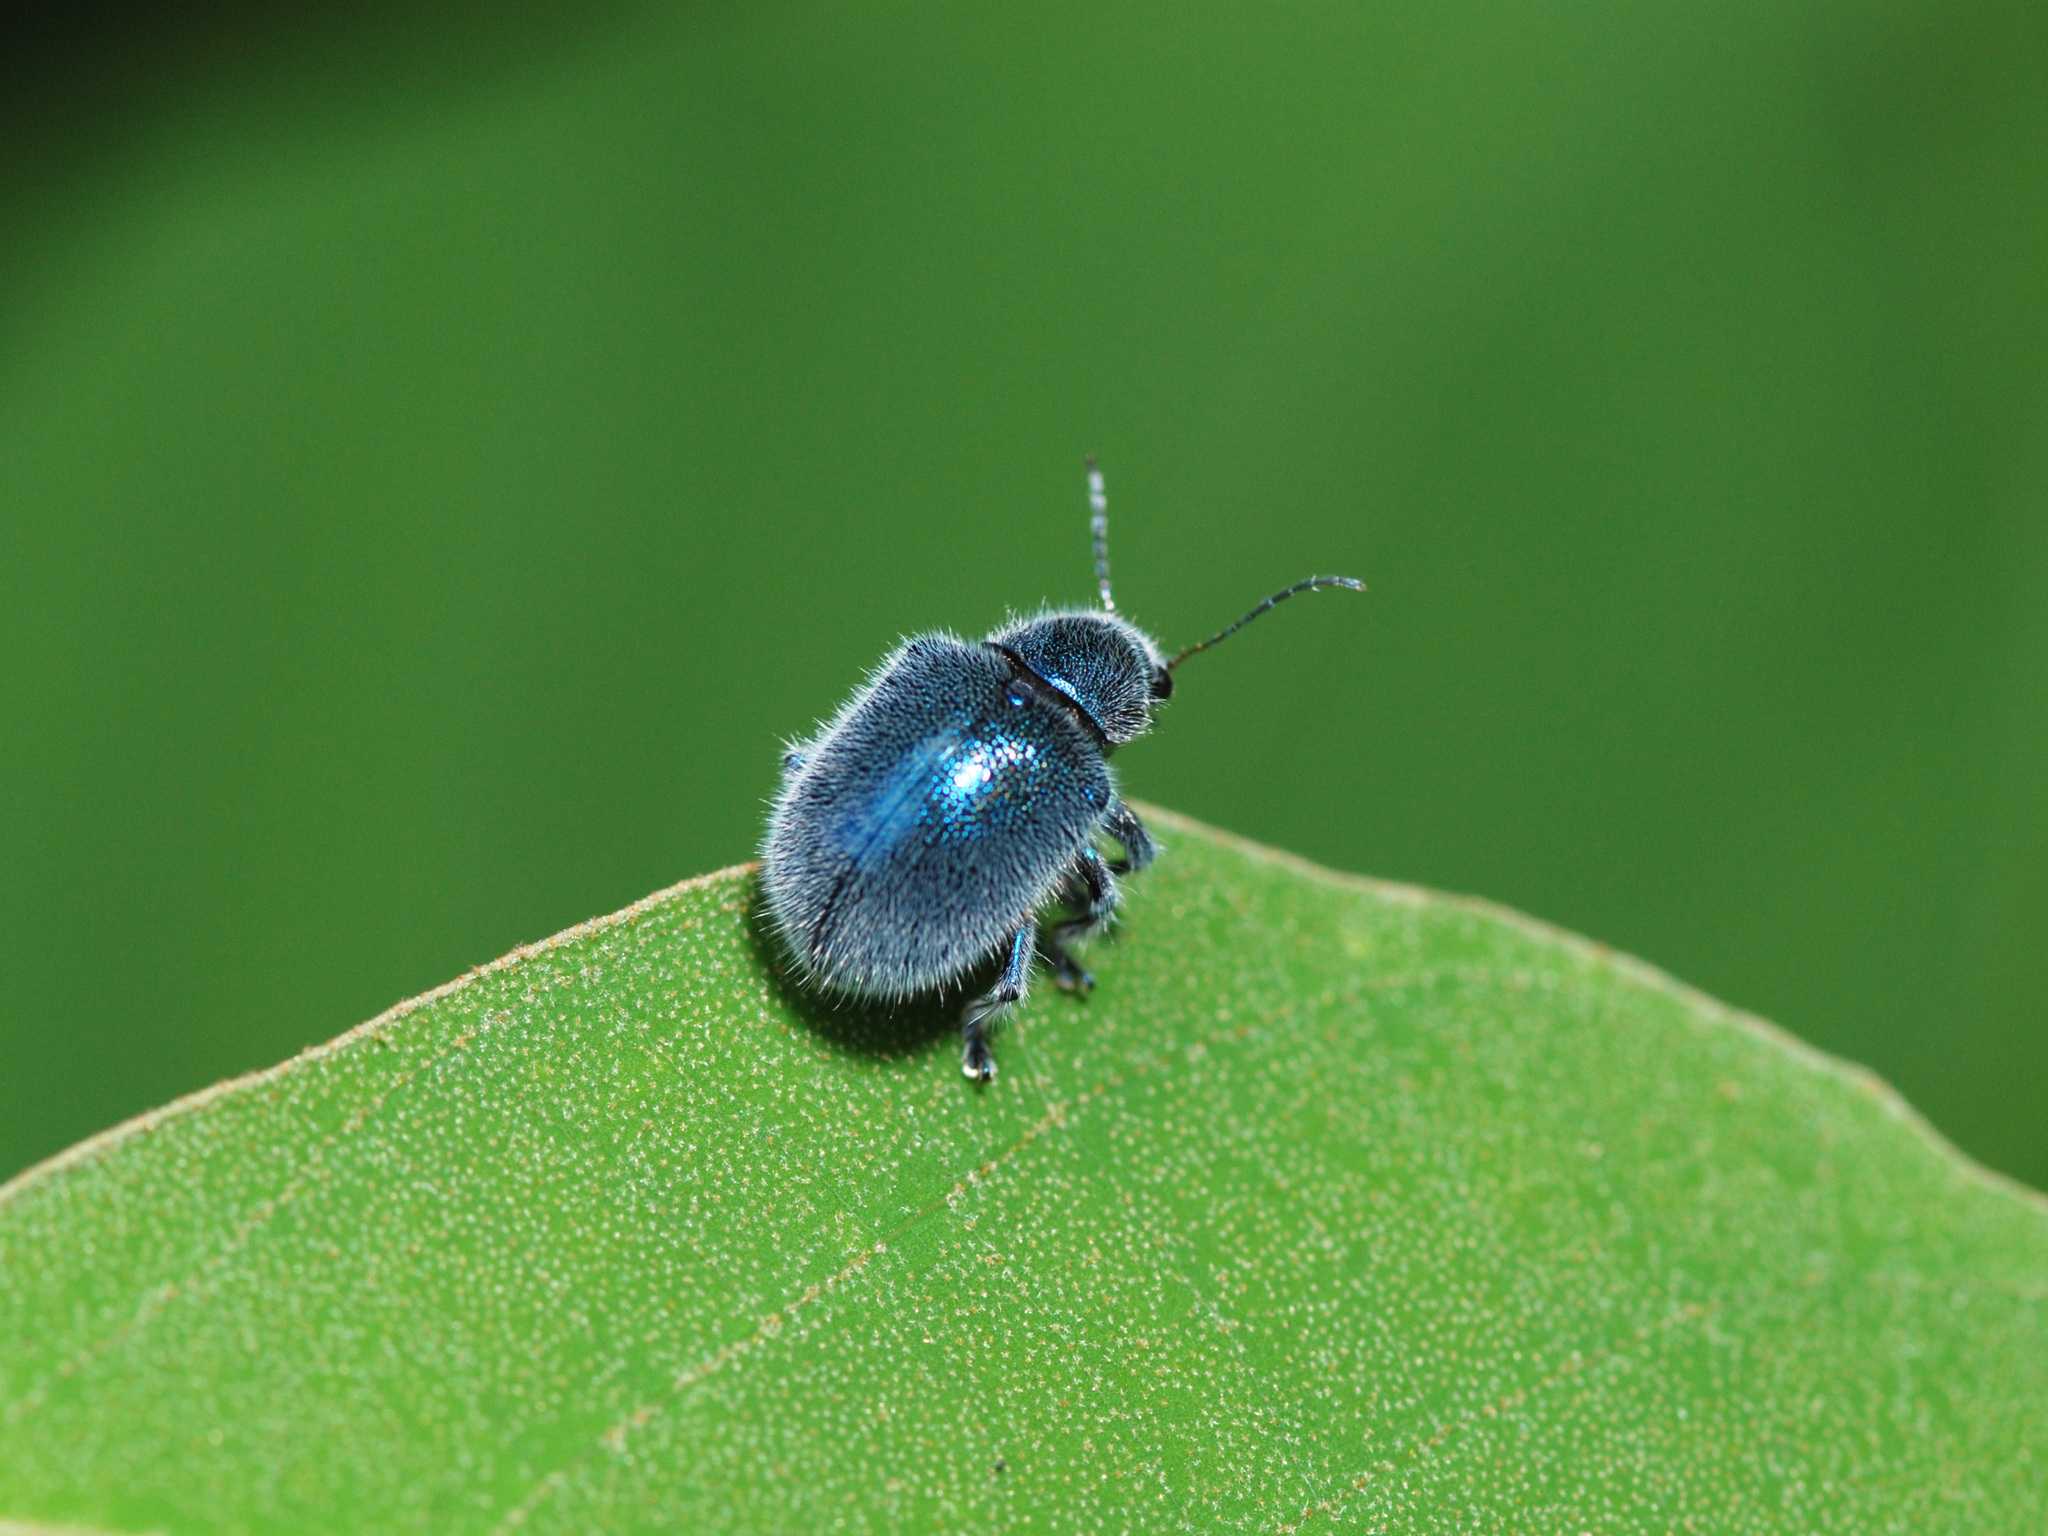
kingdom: Animalia
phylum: Arthropoda
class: Insecta
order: Coleoptera
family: Chrysomelidae
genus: Trichochrysea
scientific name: Trichochrysea
